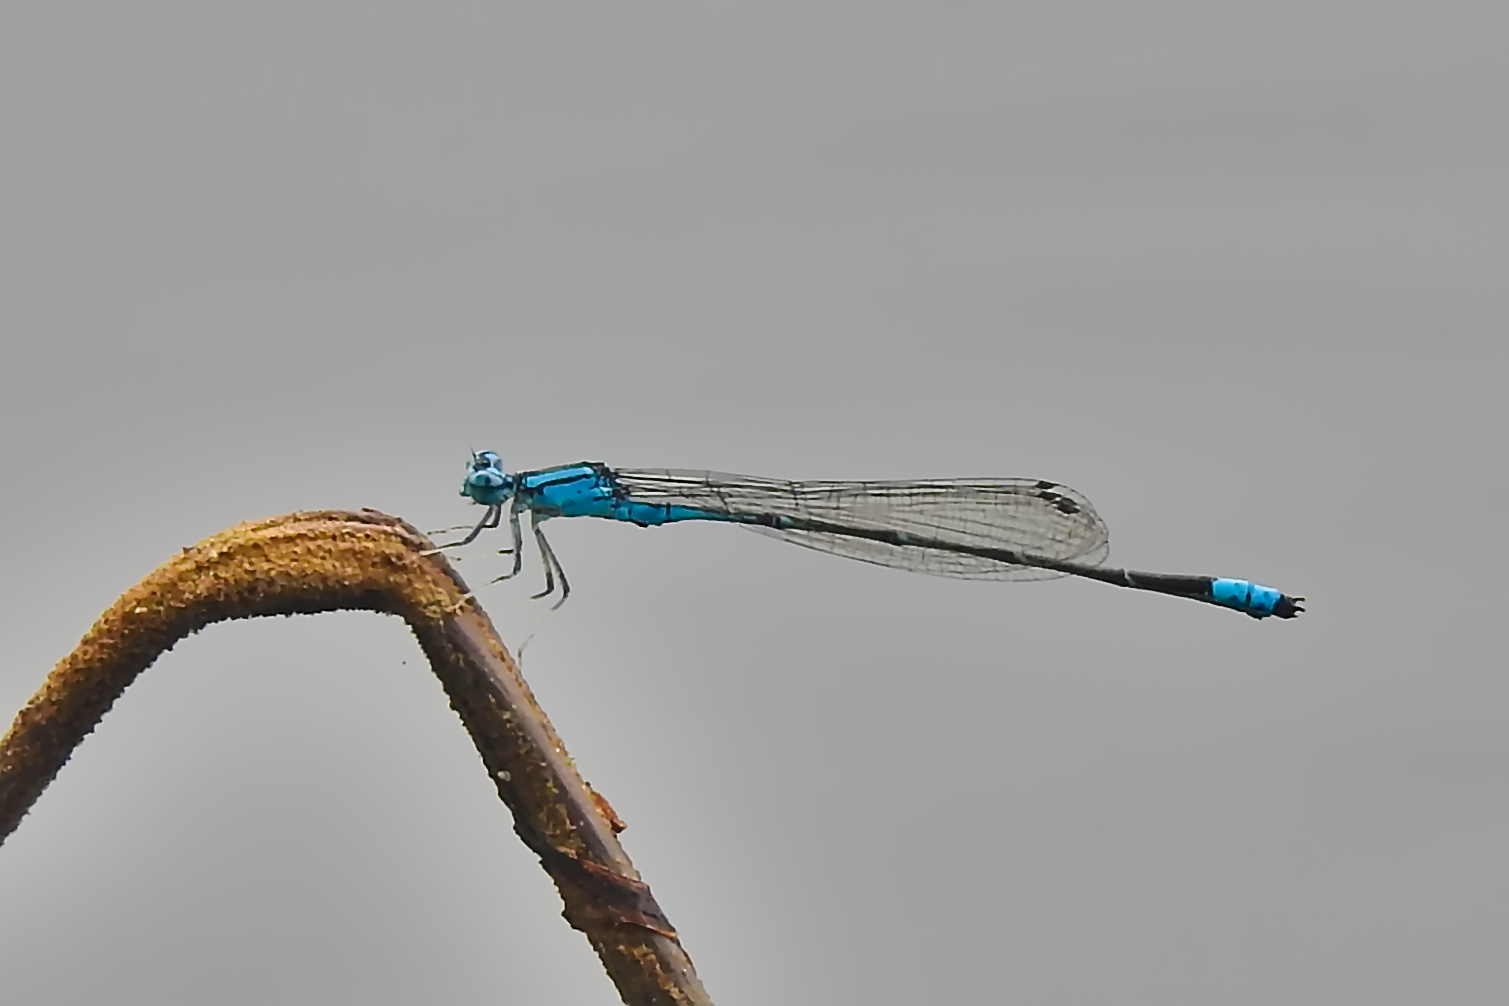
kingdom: Animalia
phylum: Arthropoda
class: Insecta
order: Odonata
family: Coenagrionidae
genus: Enallagma
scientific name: Enallagma traviatum
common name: Slender bluet
